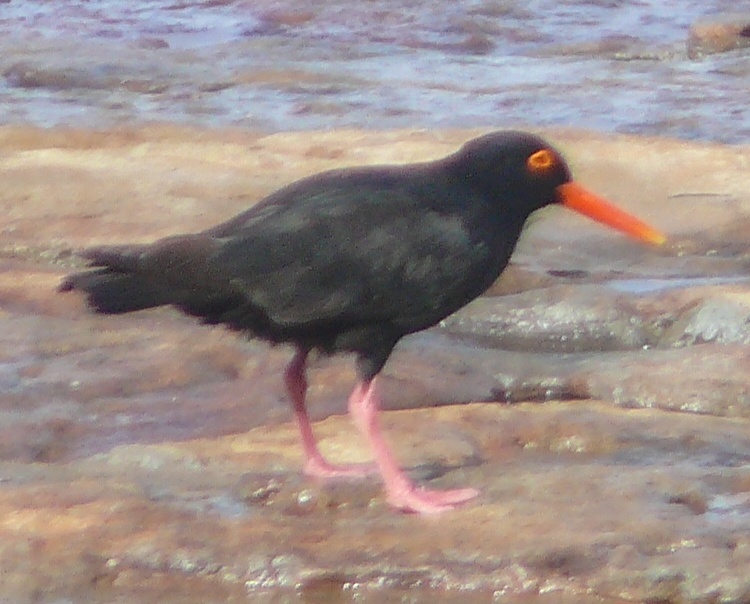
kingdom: Animalia
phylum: Chordata
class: Aves
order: Charadriiformes
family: Haematopodidae
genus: Haematopus
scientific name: Haematopus moquini
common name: African oystercatcher
